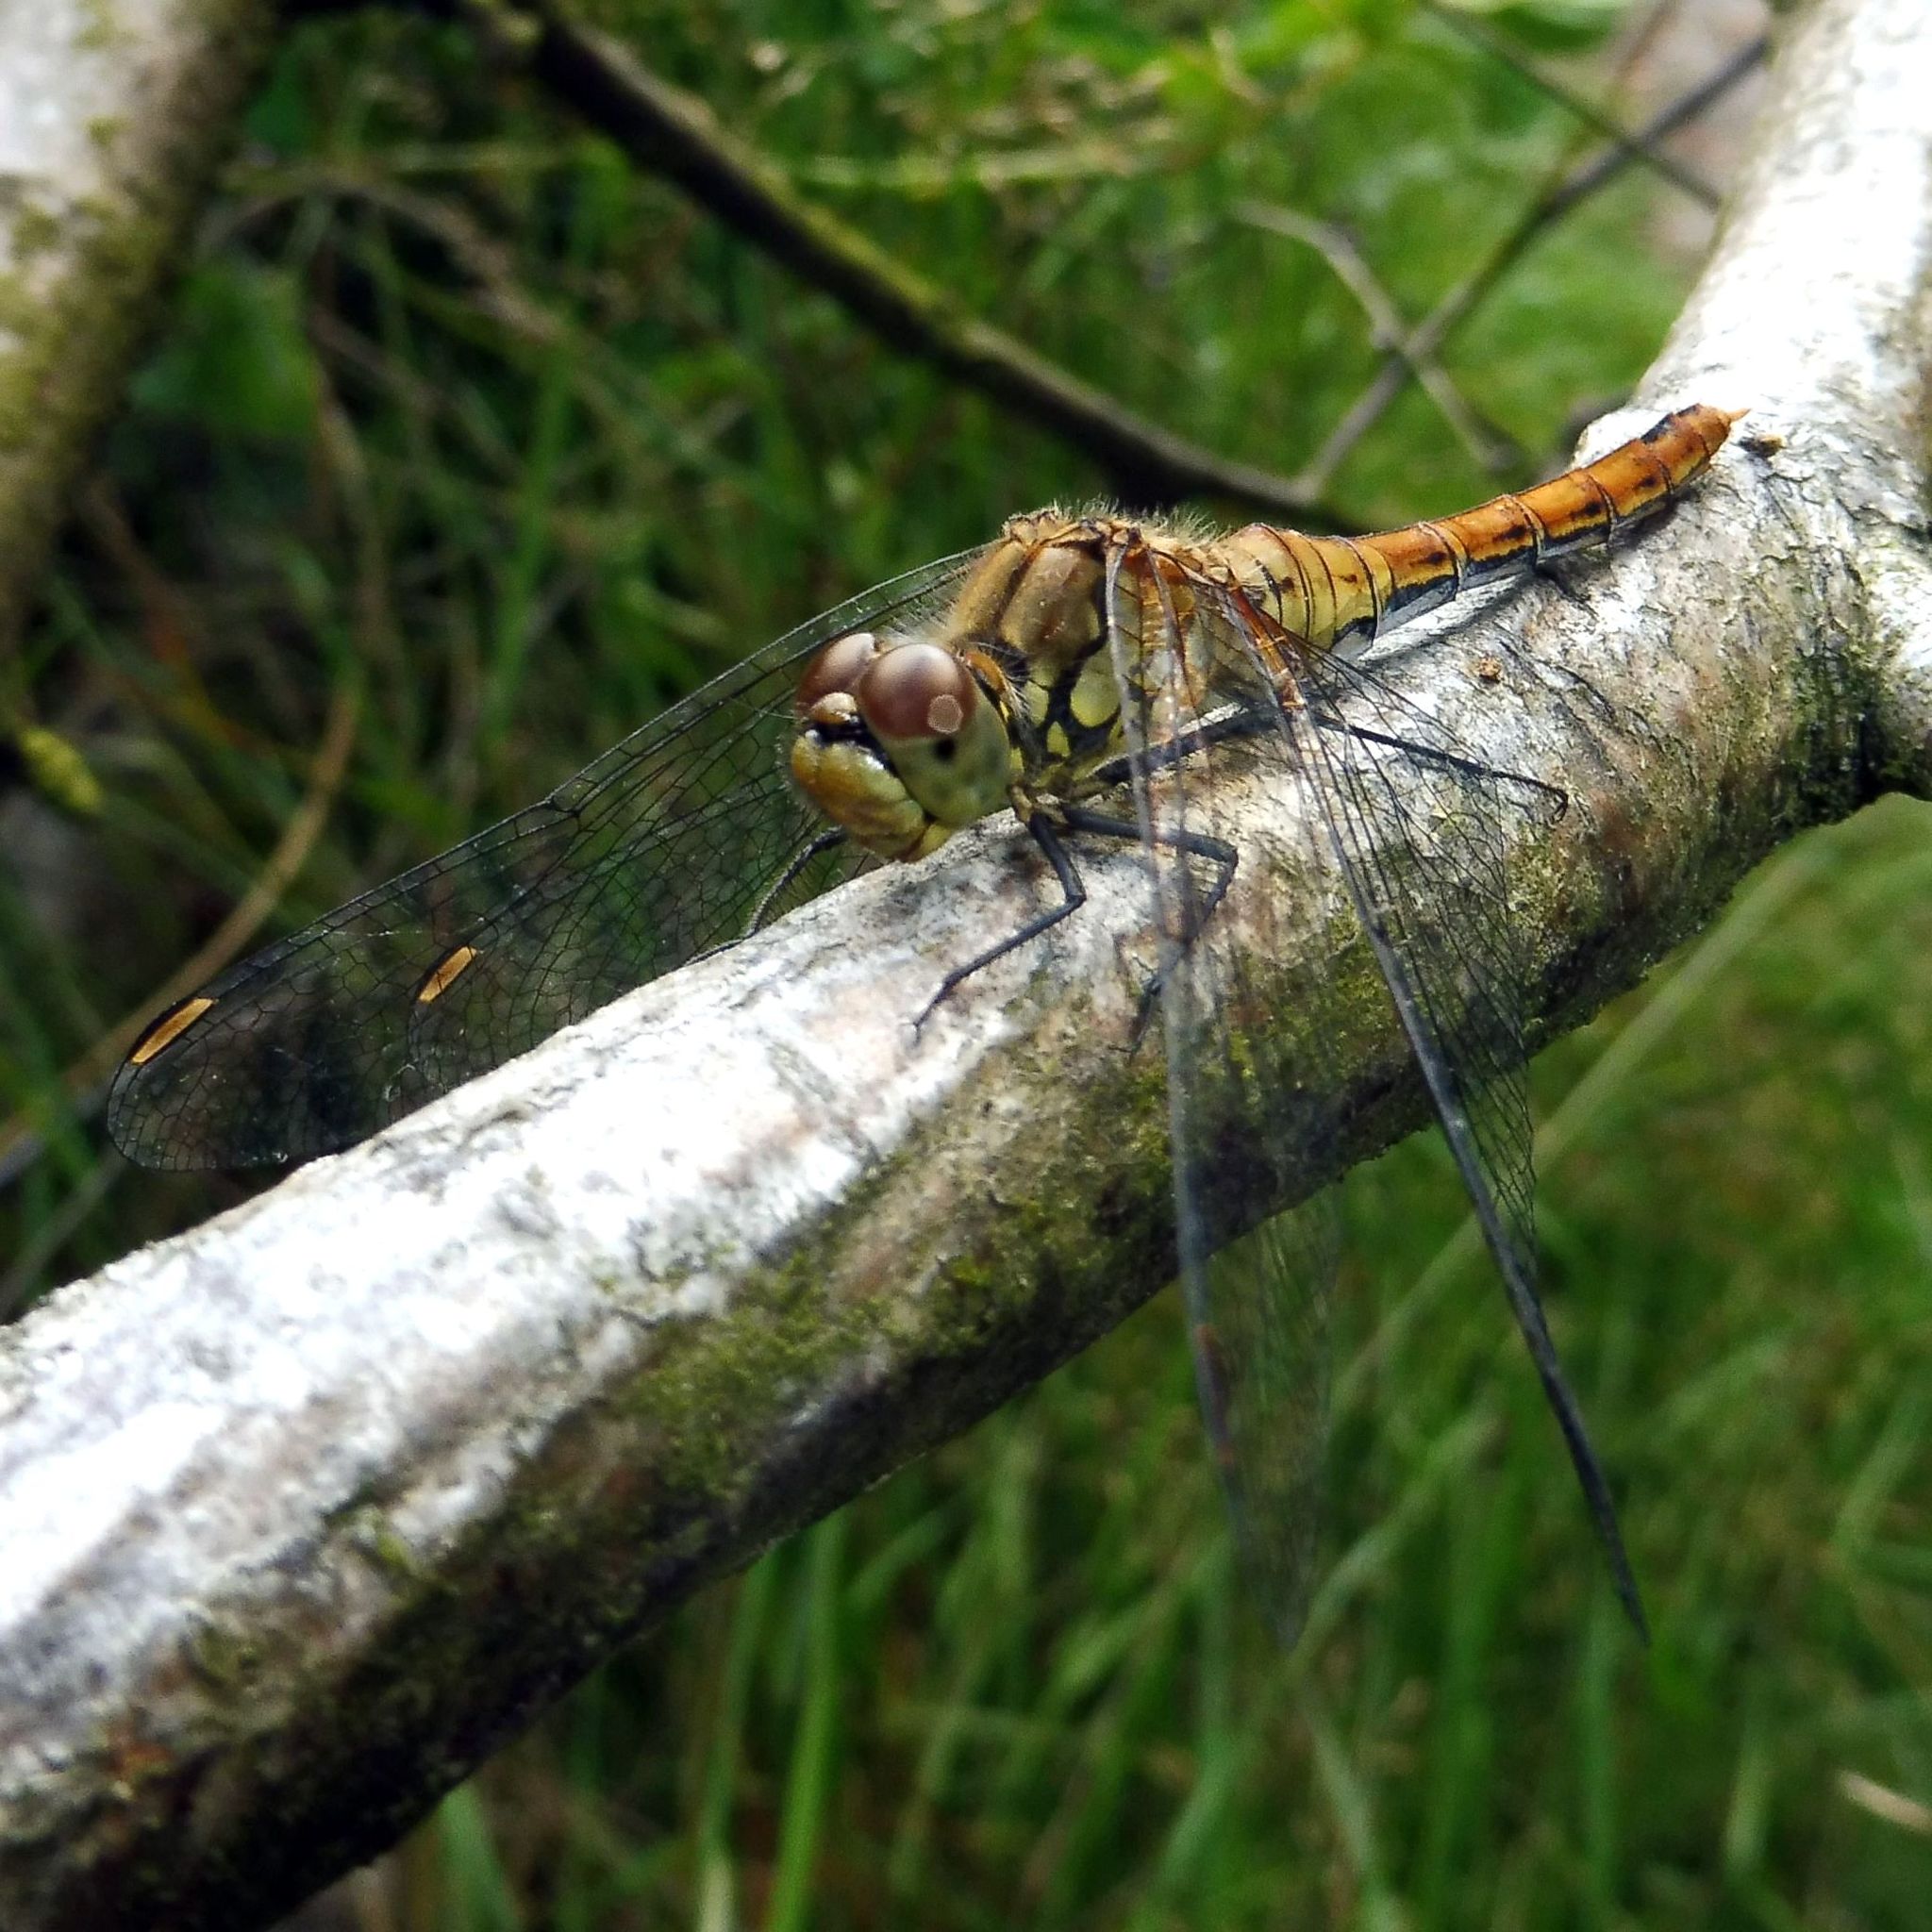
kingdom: Animalia
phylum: Arthropoda
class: Insecta
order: Odonata
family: Libellulidae
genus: Sympetrum
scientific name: Sympetrum sanguineum
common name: Ruddy darter
